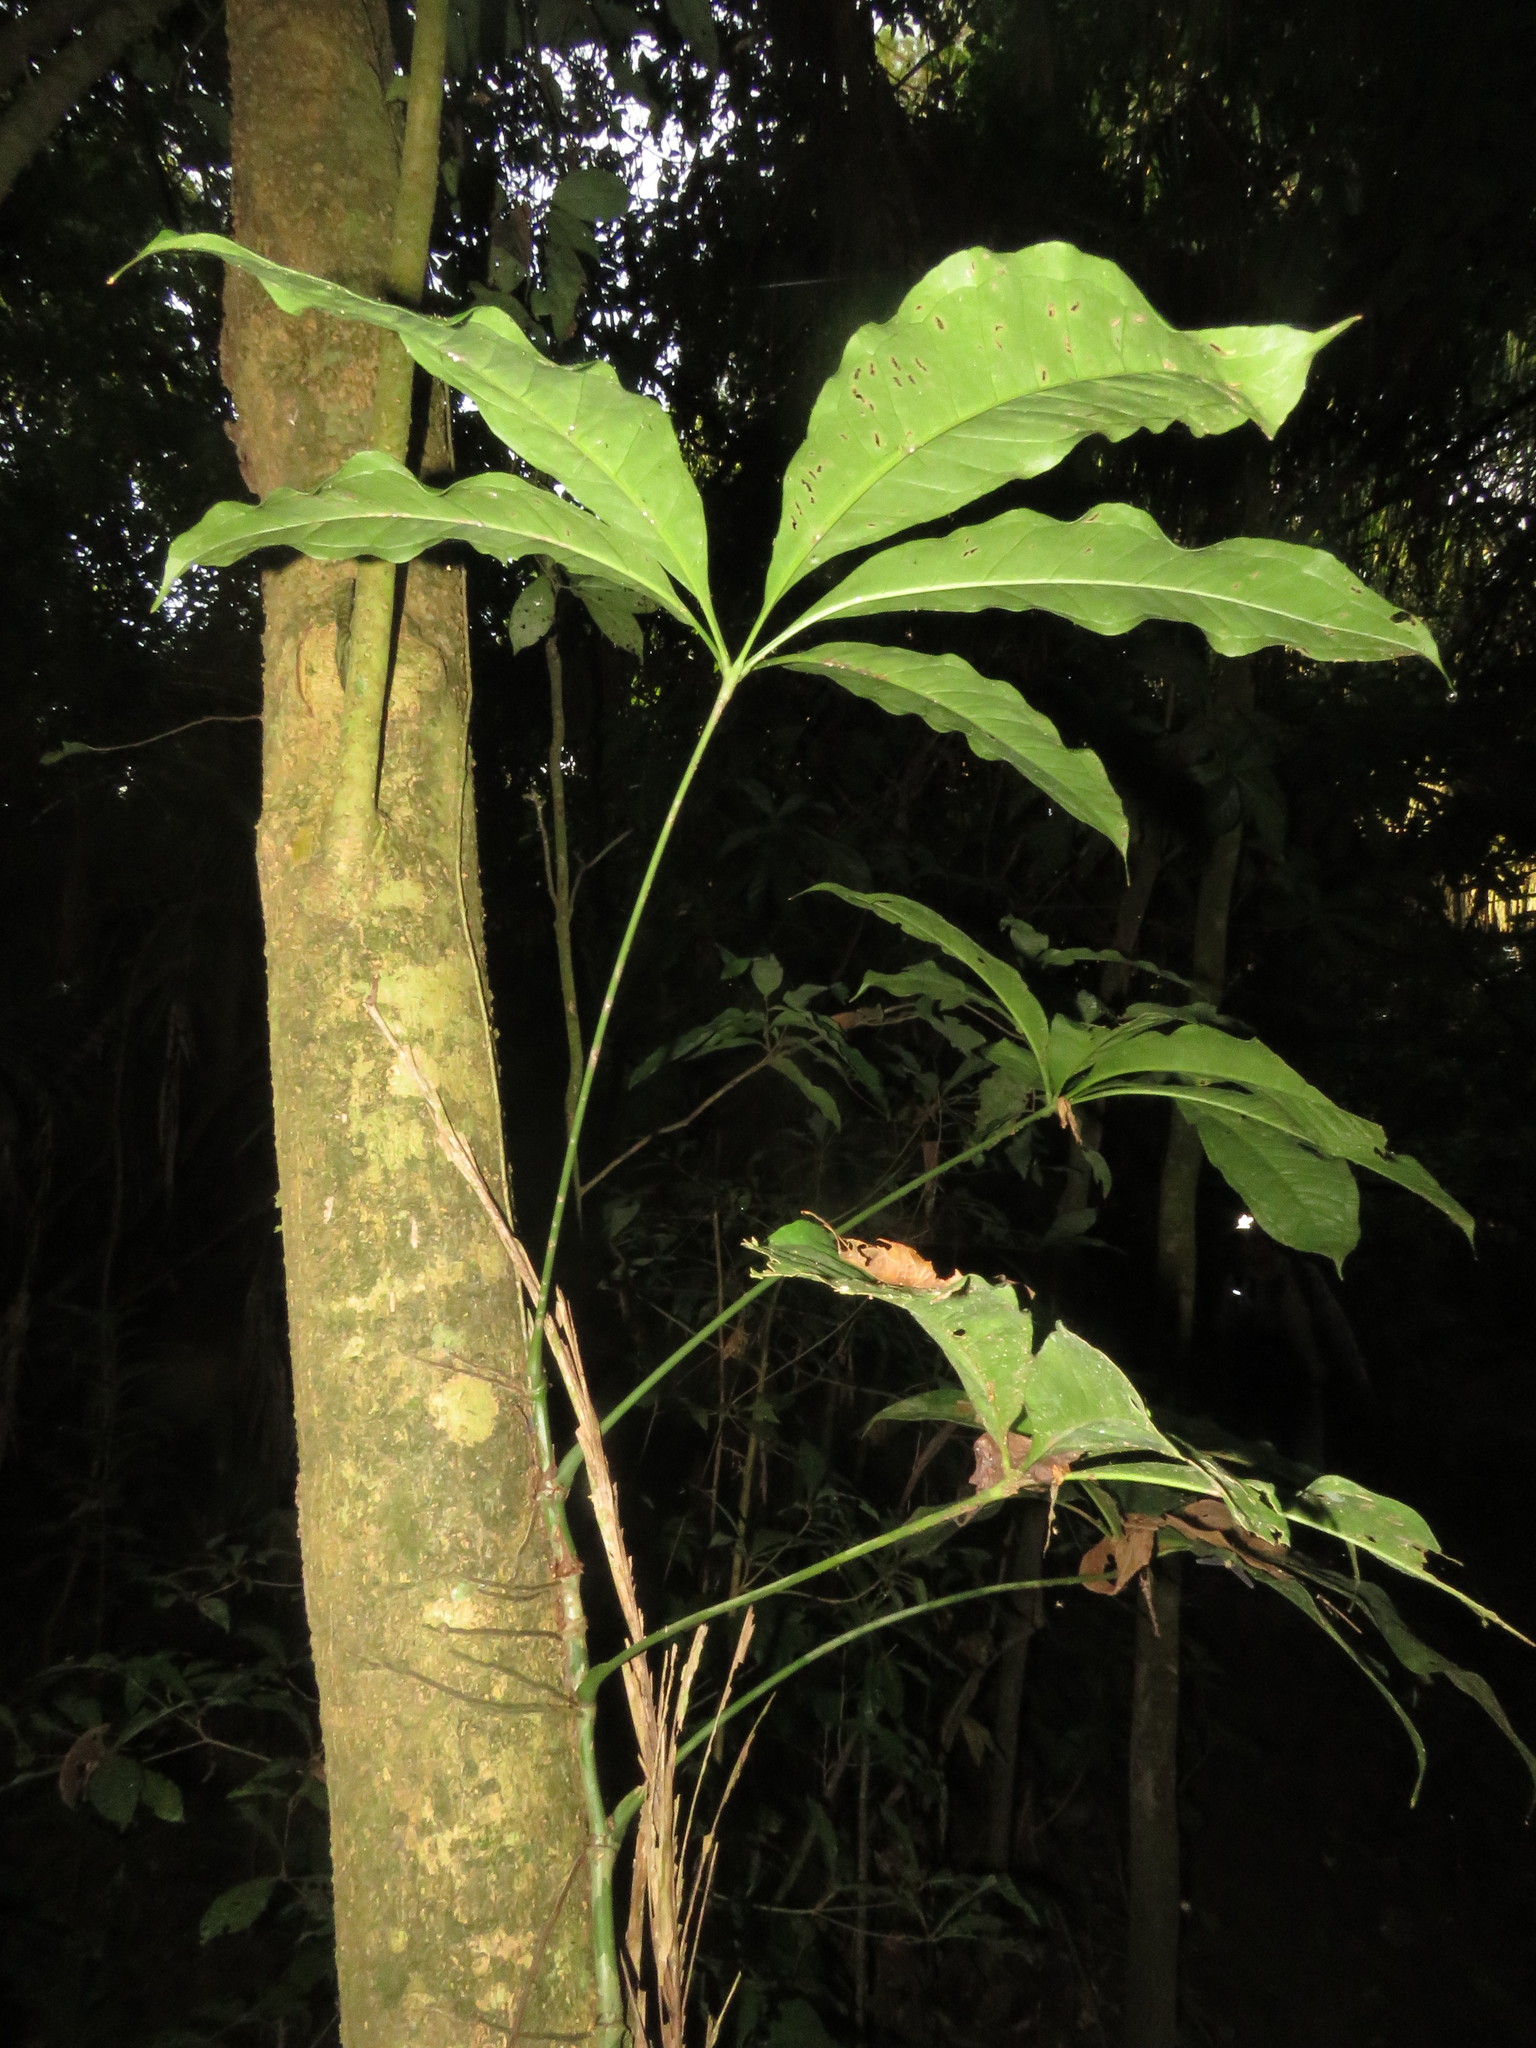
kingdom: Plantae
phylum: Tracheophyta
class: Liliopsida
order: Alismatales
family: Araceae
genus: Anthurium
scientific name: Anthurium pentaphyllum
